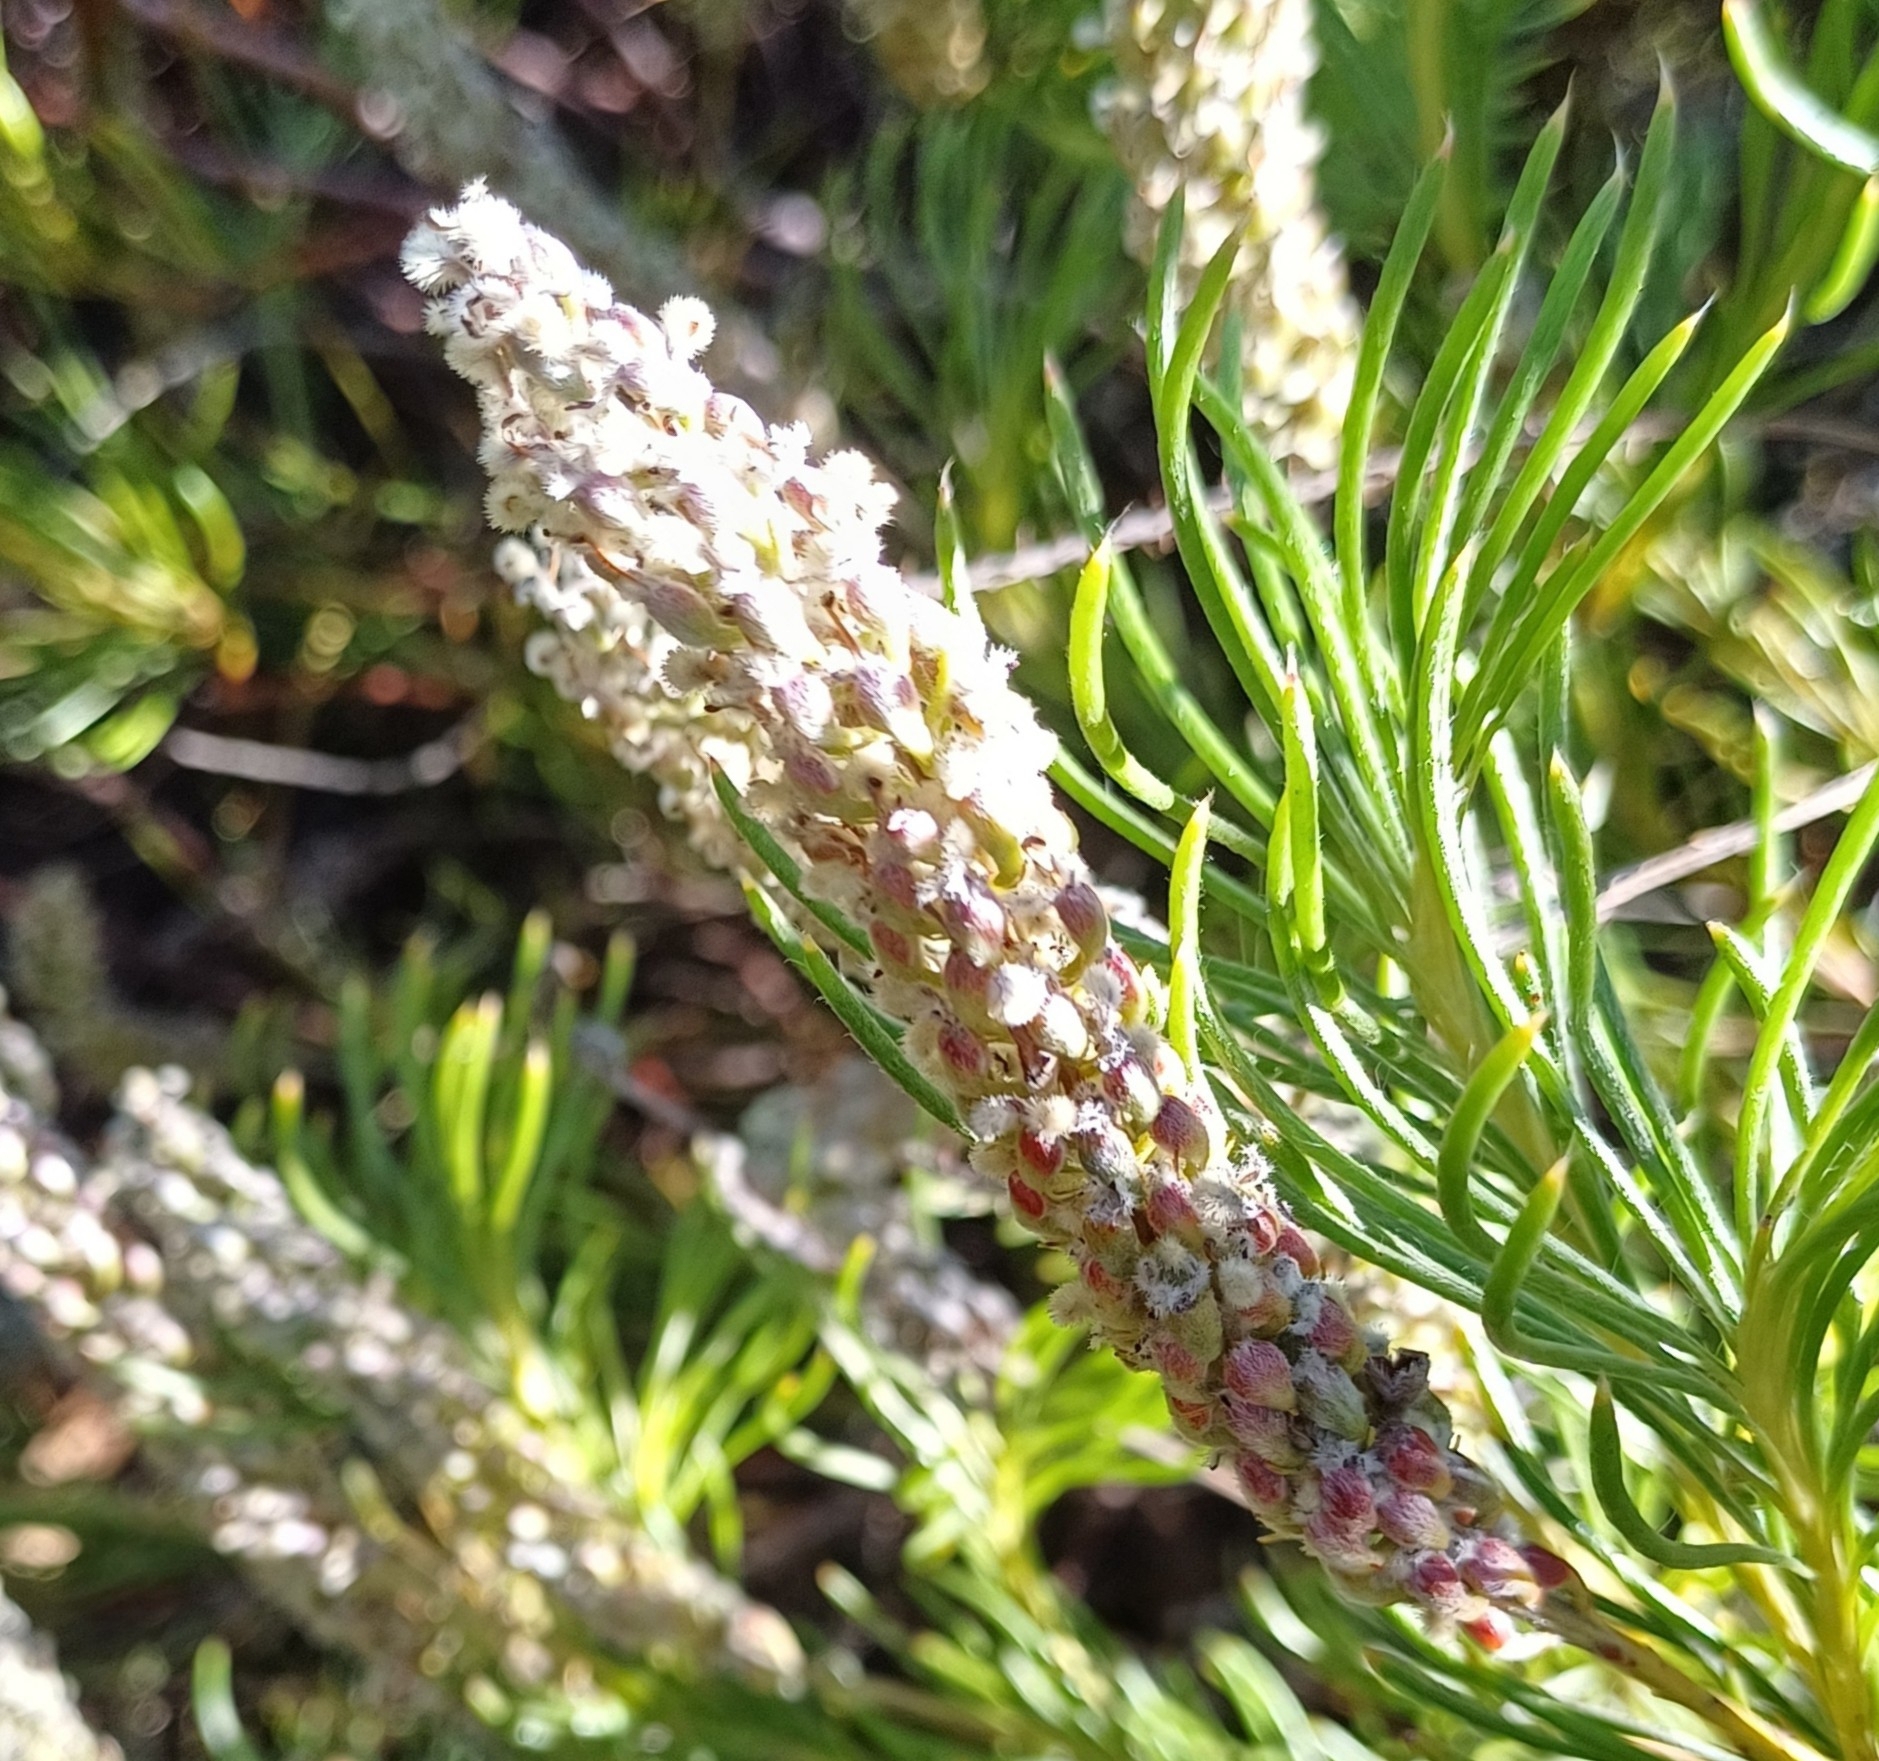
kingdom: Plantae
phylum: Tracheophyta
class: Magnoliopsida
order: Proteales
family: Proteaceae
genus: Spatalla
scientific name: Spatalla curvifolia
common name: White-stalked spoon
